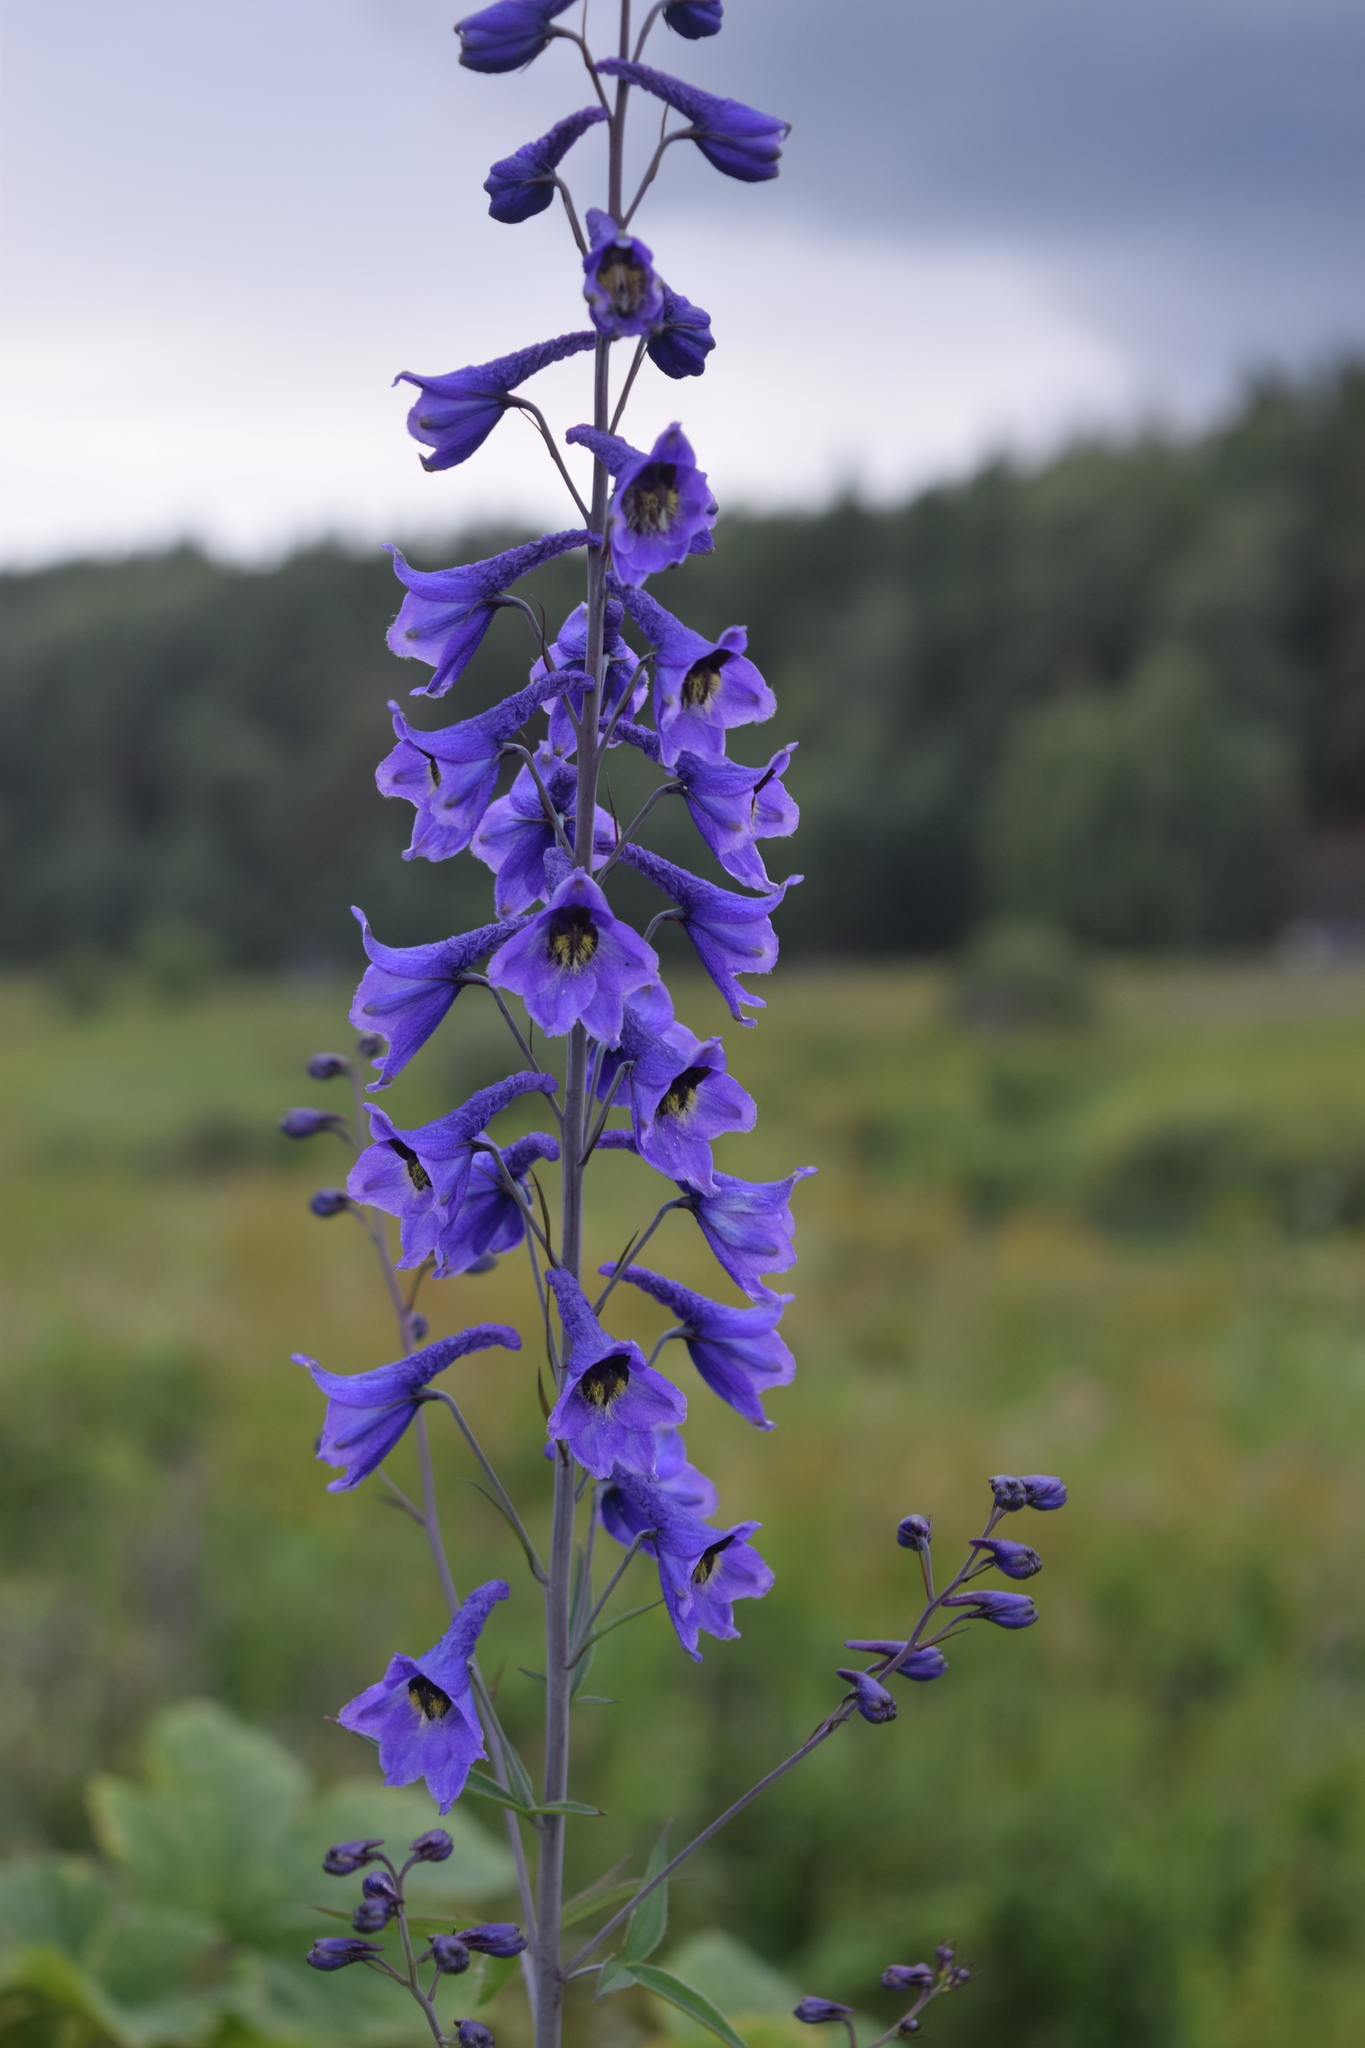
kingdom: Plantae
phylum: Tracheophyta
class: Magnoliopsida
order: Ranunculales
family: Ranunculaceae
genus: Delphinium
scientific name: Delphinium elatum
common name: Candle larkspur
